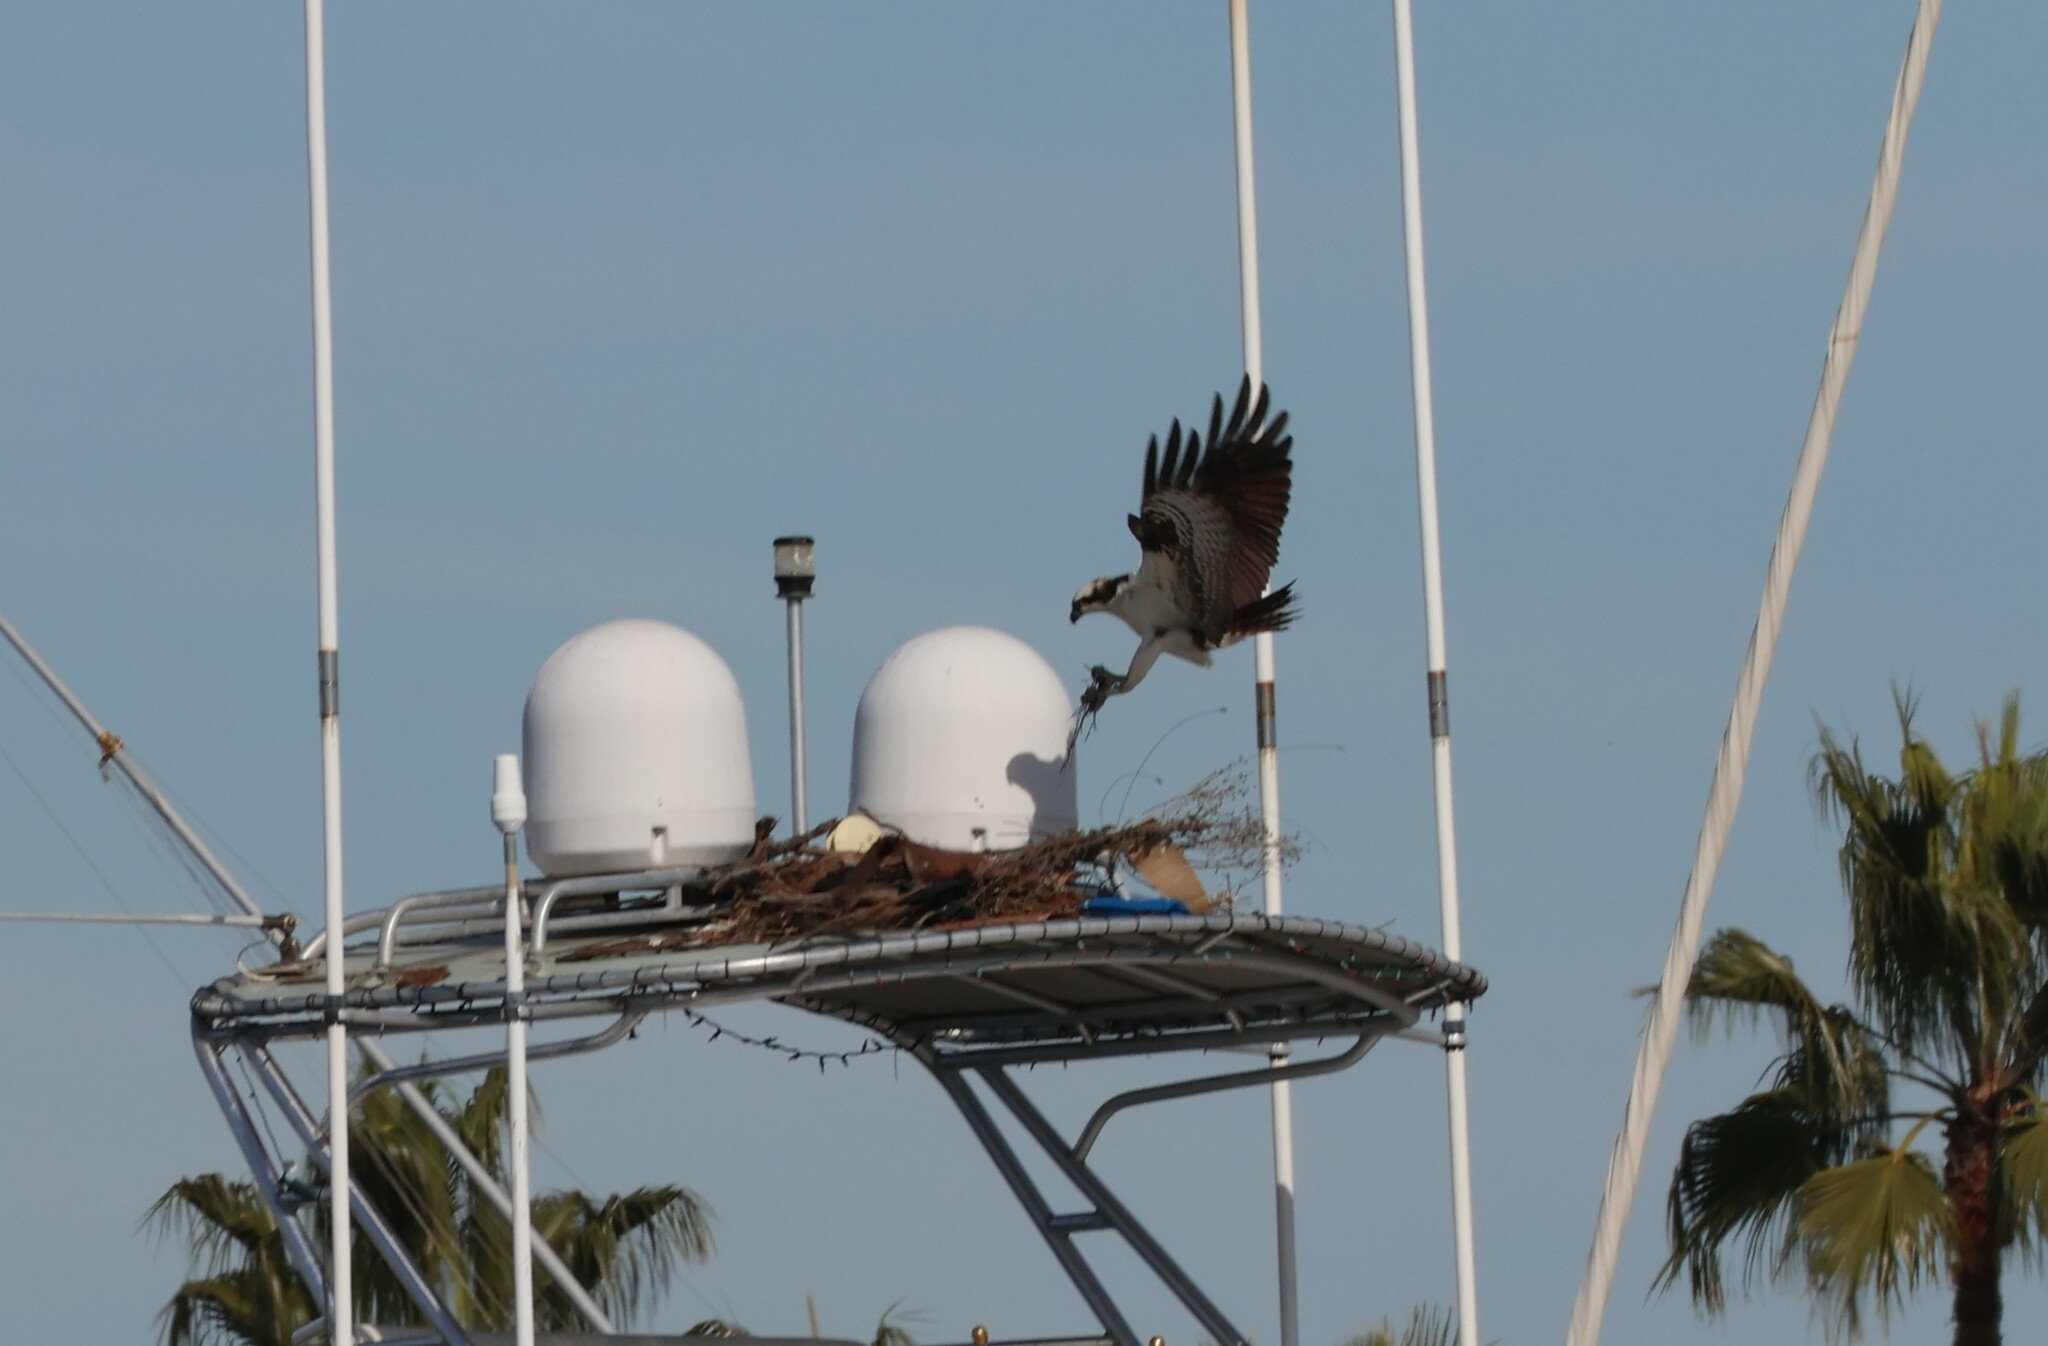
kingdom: Animalia
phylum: Chordata
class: Aves
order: Accipitriformes
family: Pandionidae
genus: Pandion
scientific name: Pandion haliaetus
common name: Osprey
